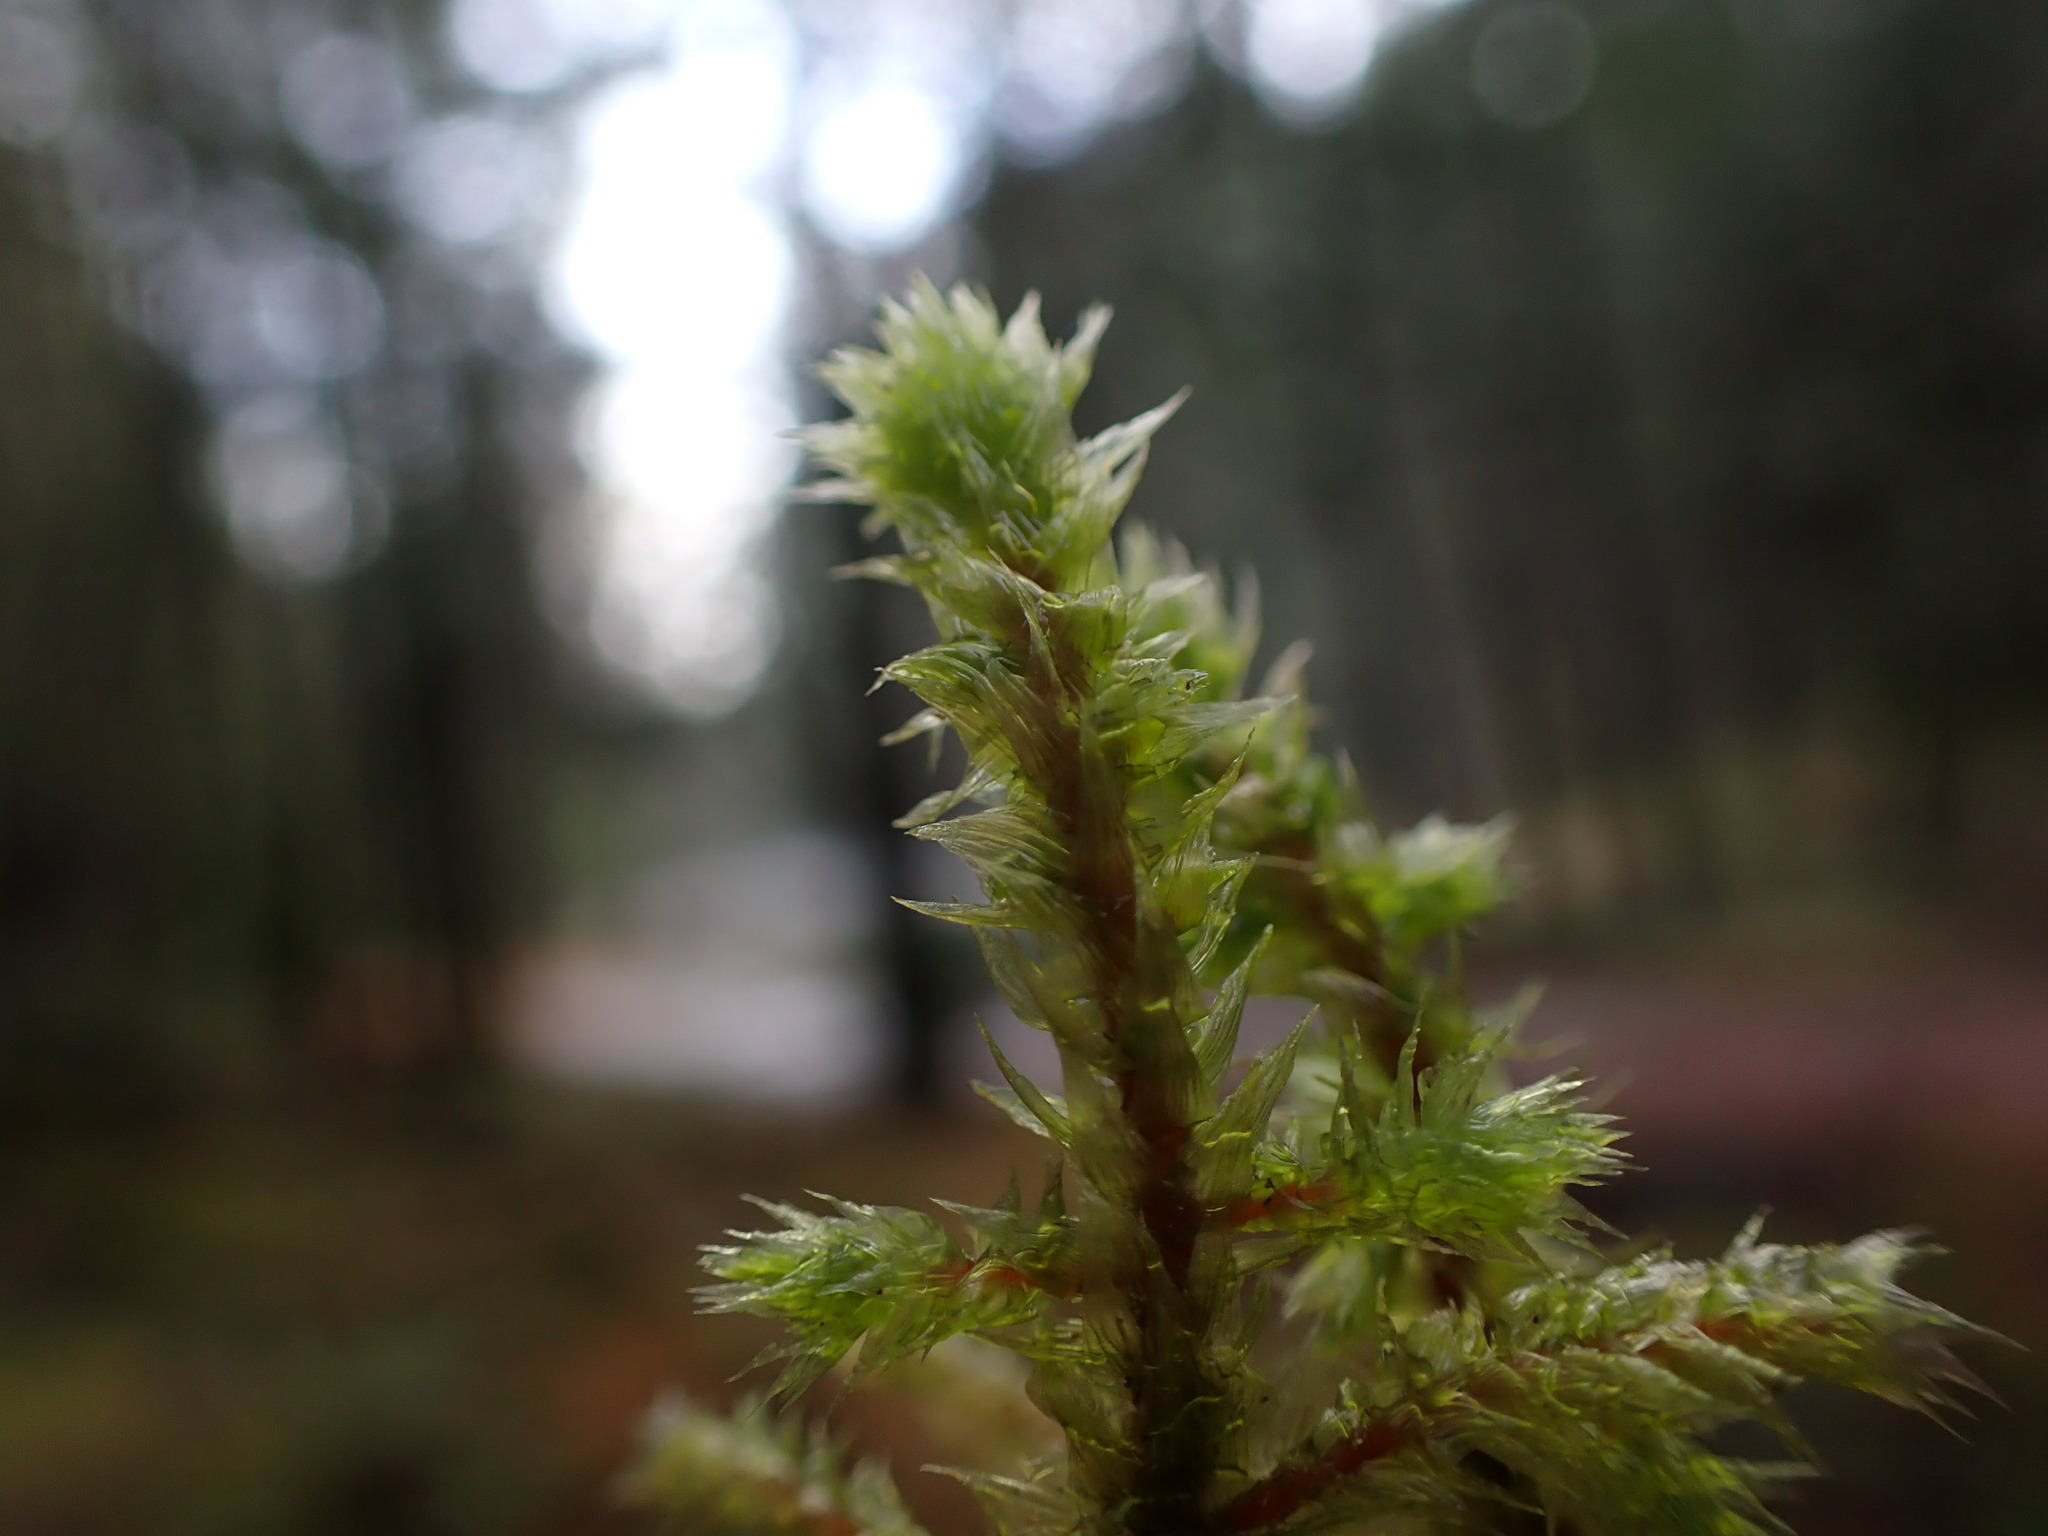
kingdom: Plantae
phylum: Bryophyta
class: Bryopsida
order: Hypnales
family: Hylocomiaceae
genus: Hylocomiadelphus
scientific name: Hylocomiadelphus triquetrus
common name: Rough goose neck moss
